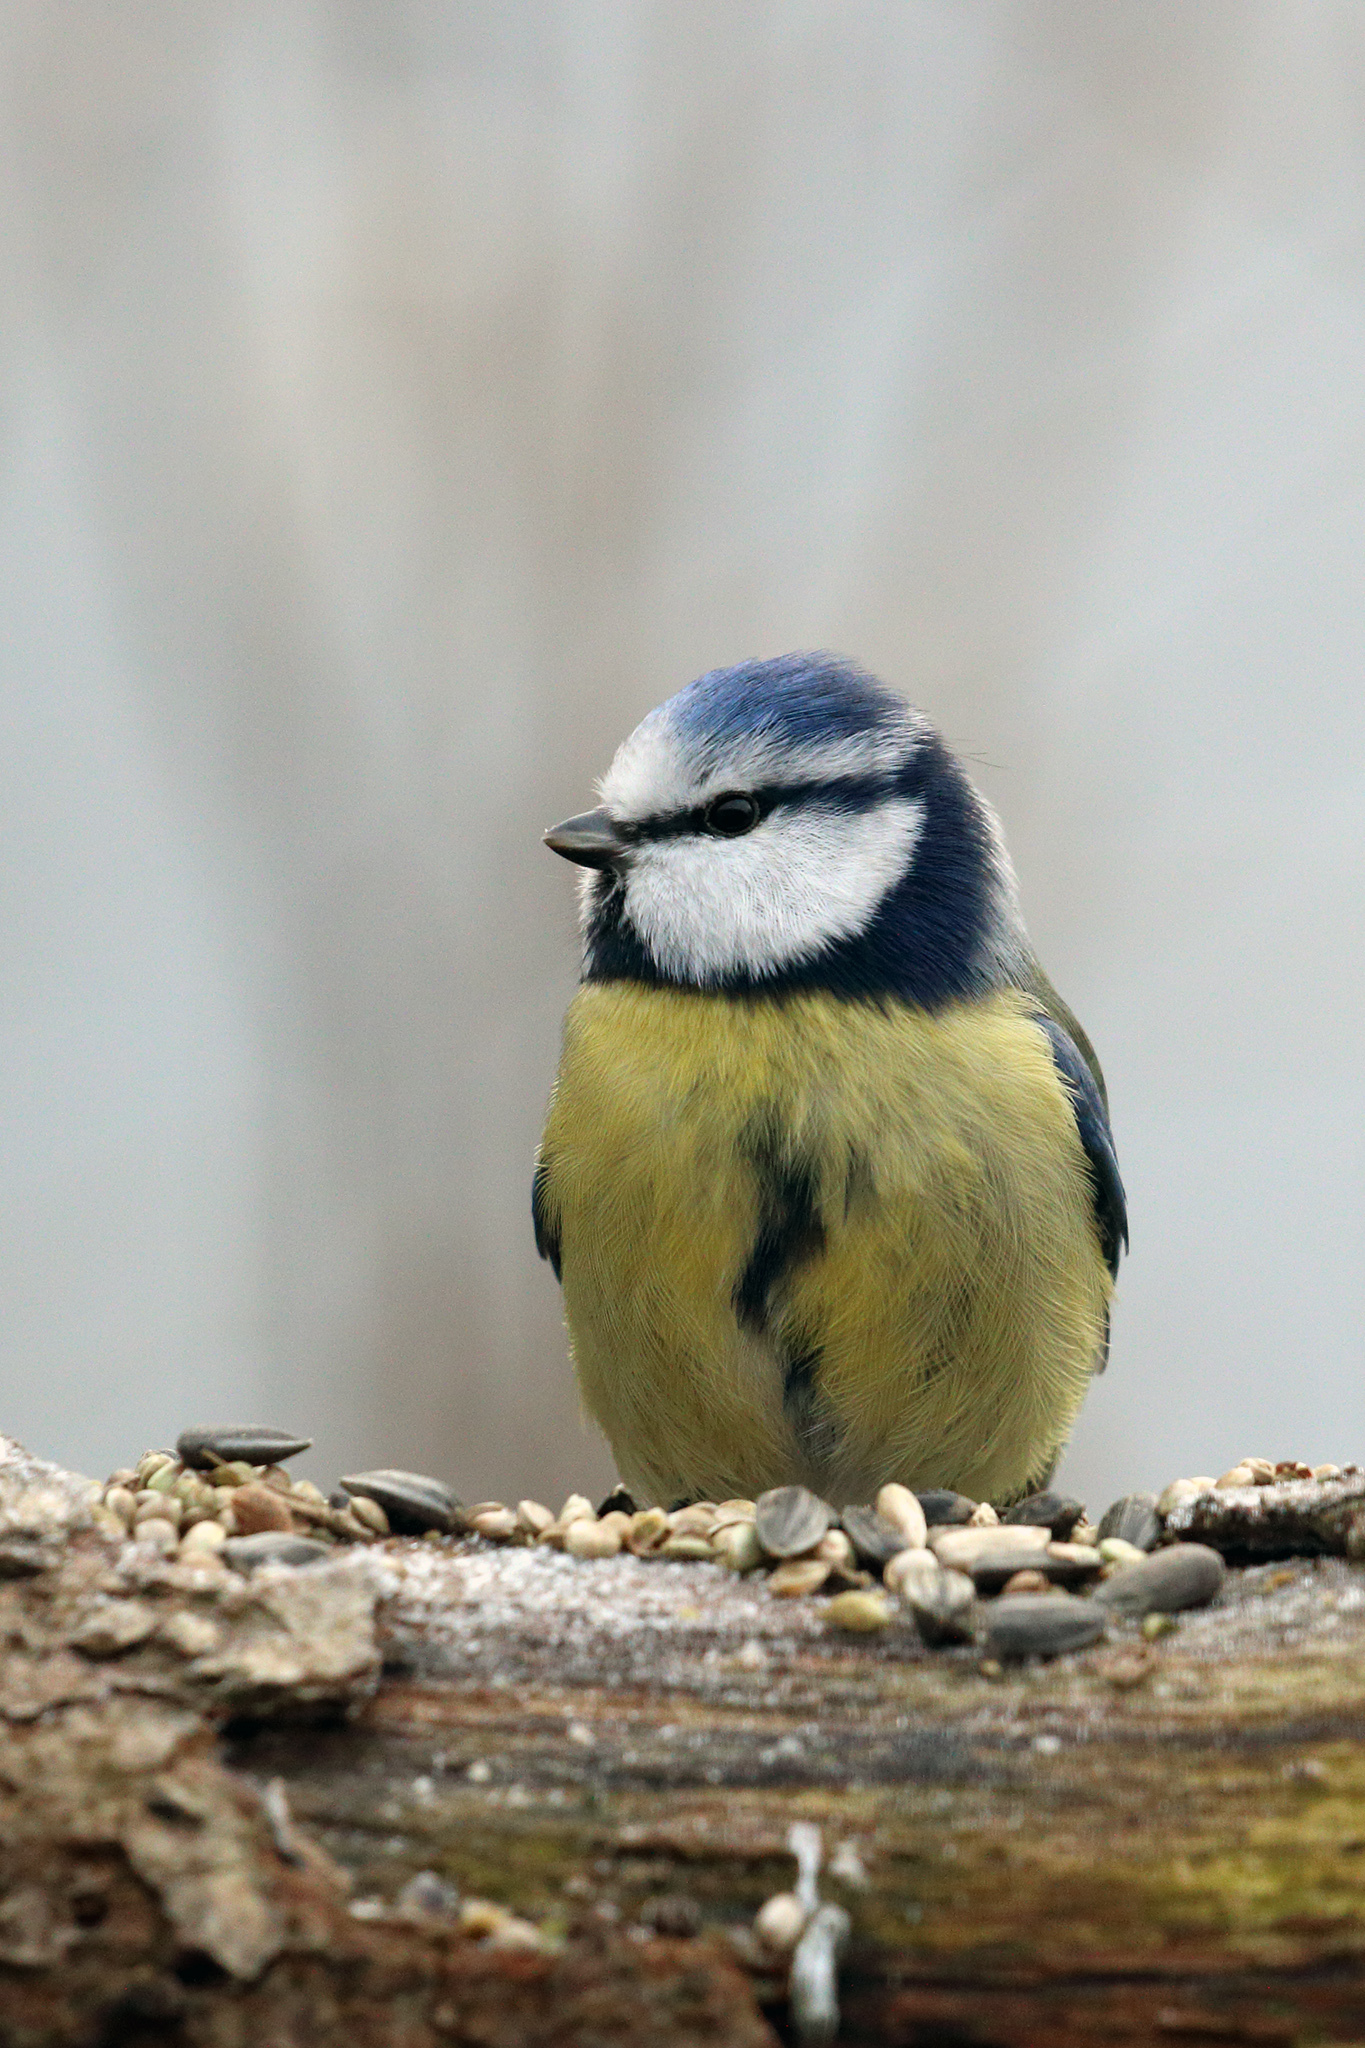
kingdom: Animalia
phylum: Chordata
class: Aves
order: Passeriformes
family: Paridae
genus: Cyanistes
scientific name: Cyanistes caeruleus
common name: Eurasian blue tit
